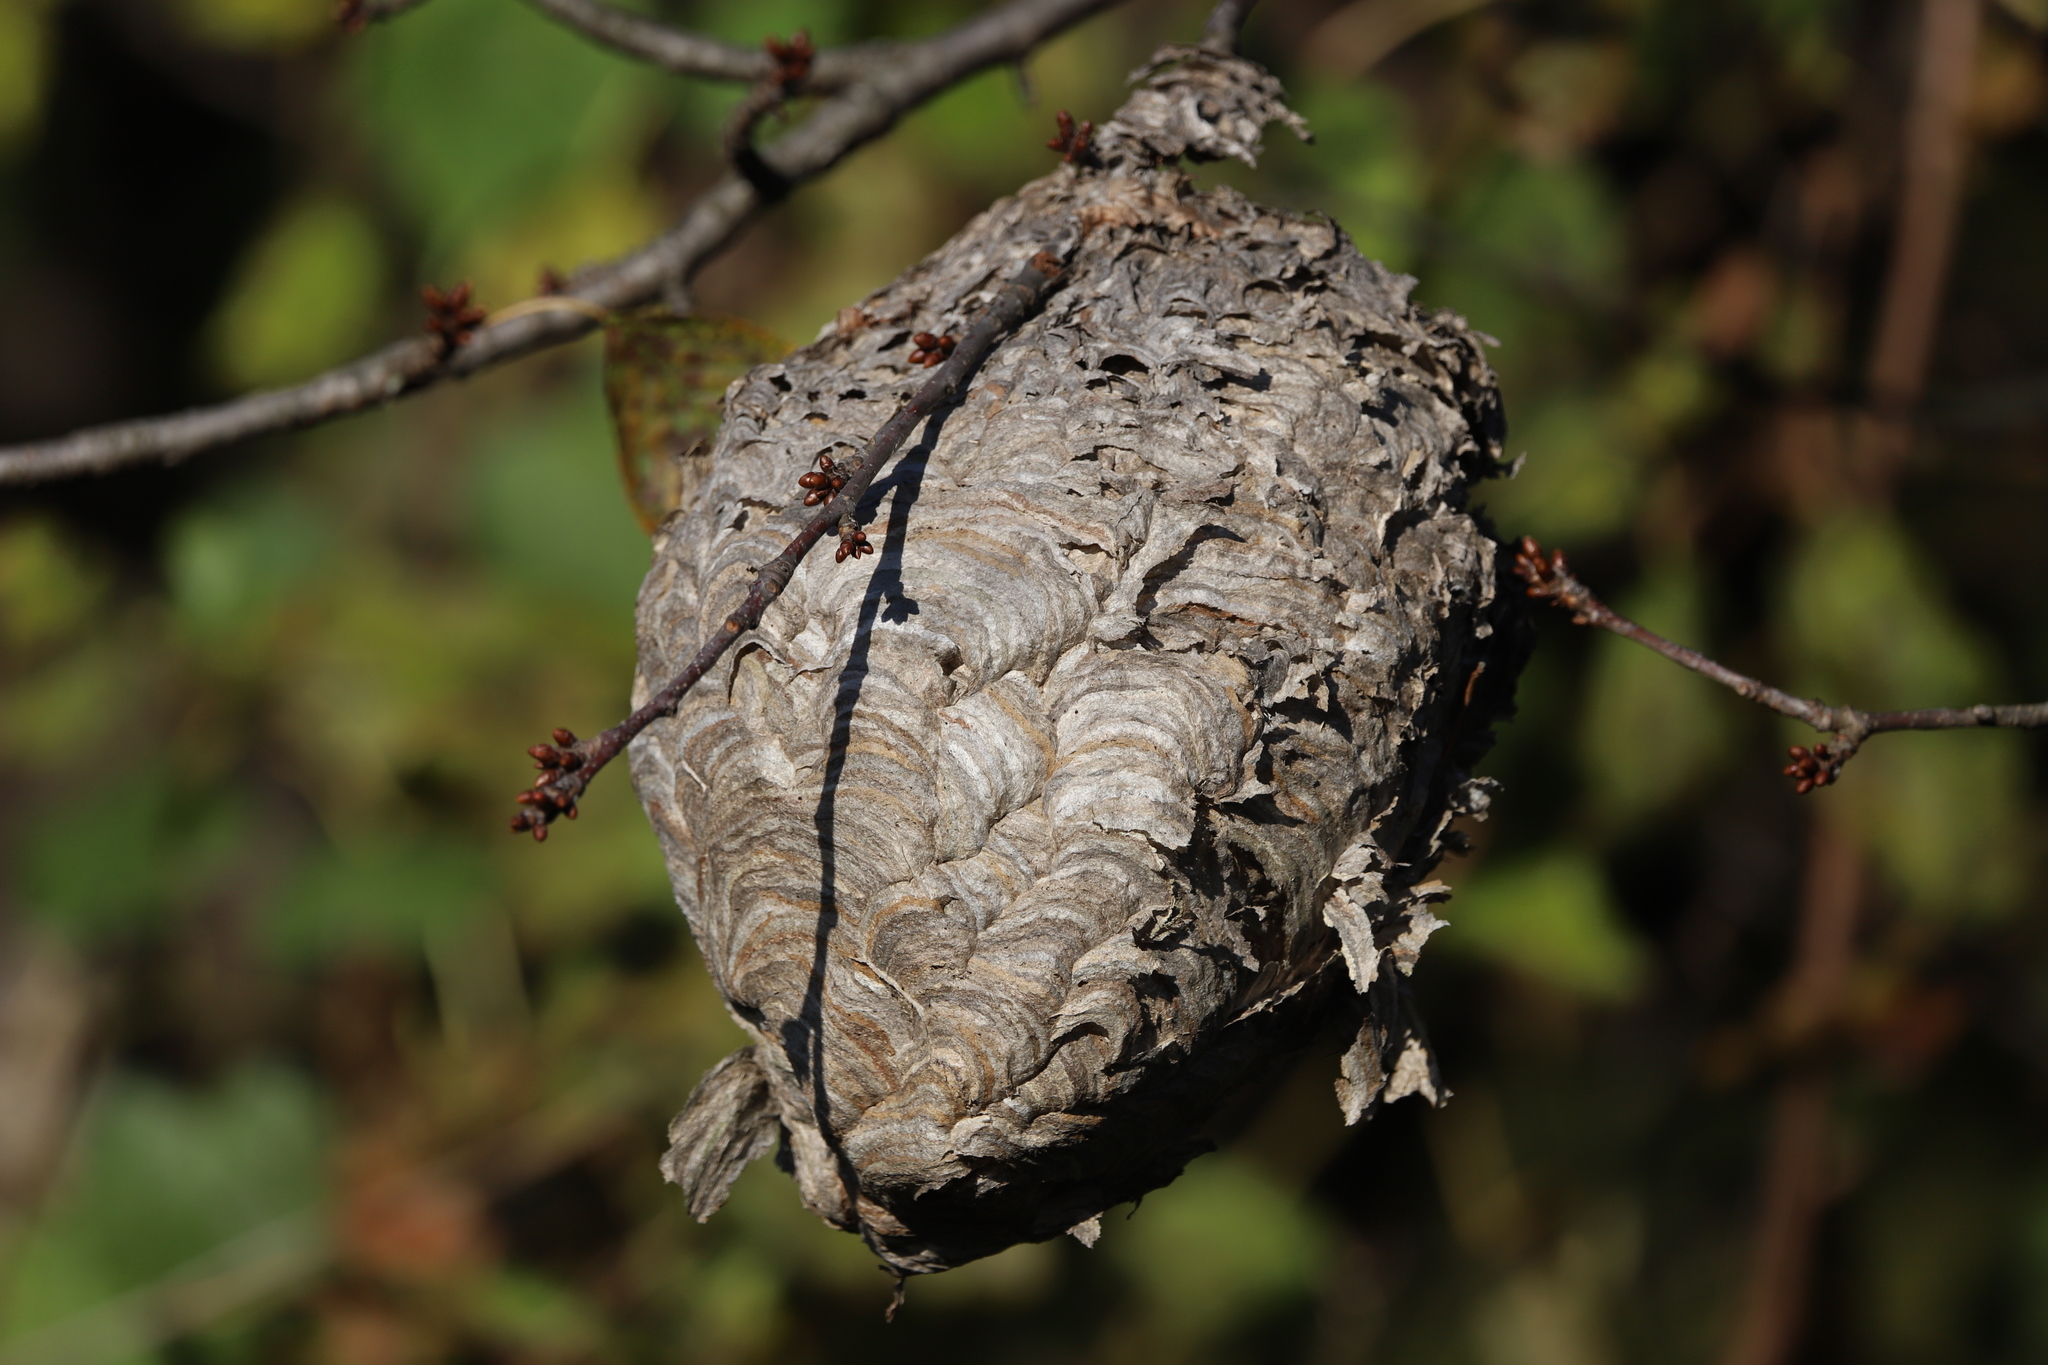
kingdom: Animalia
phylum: Arthropoda
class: Insecta
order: Hymenoptera
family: Vespidae
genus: Dolichovespula
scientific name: Dolichovespula maculata
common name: Bald-faced hornet
